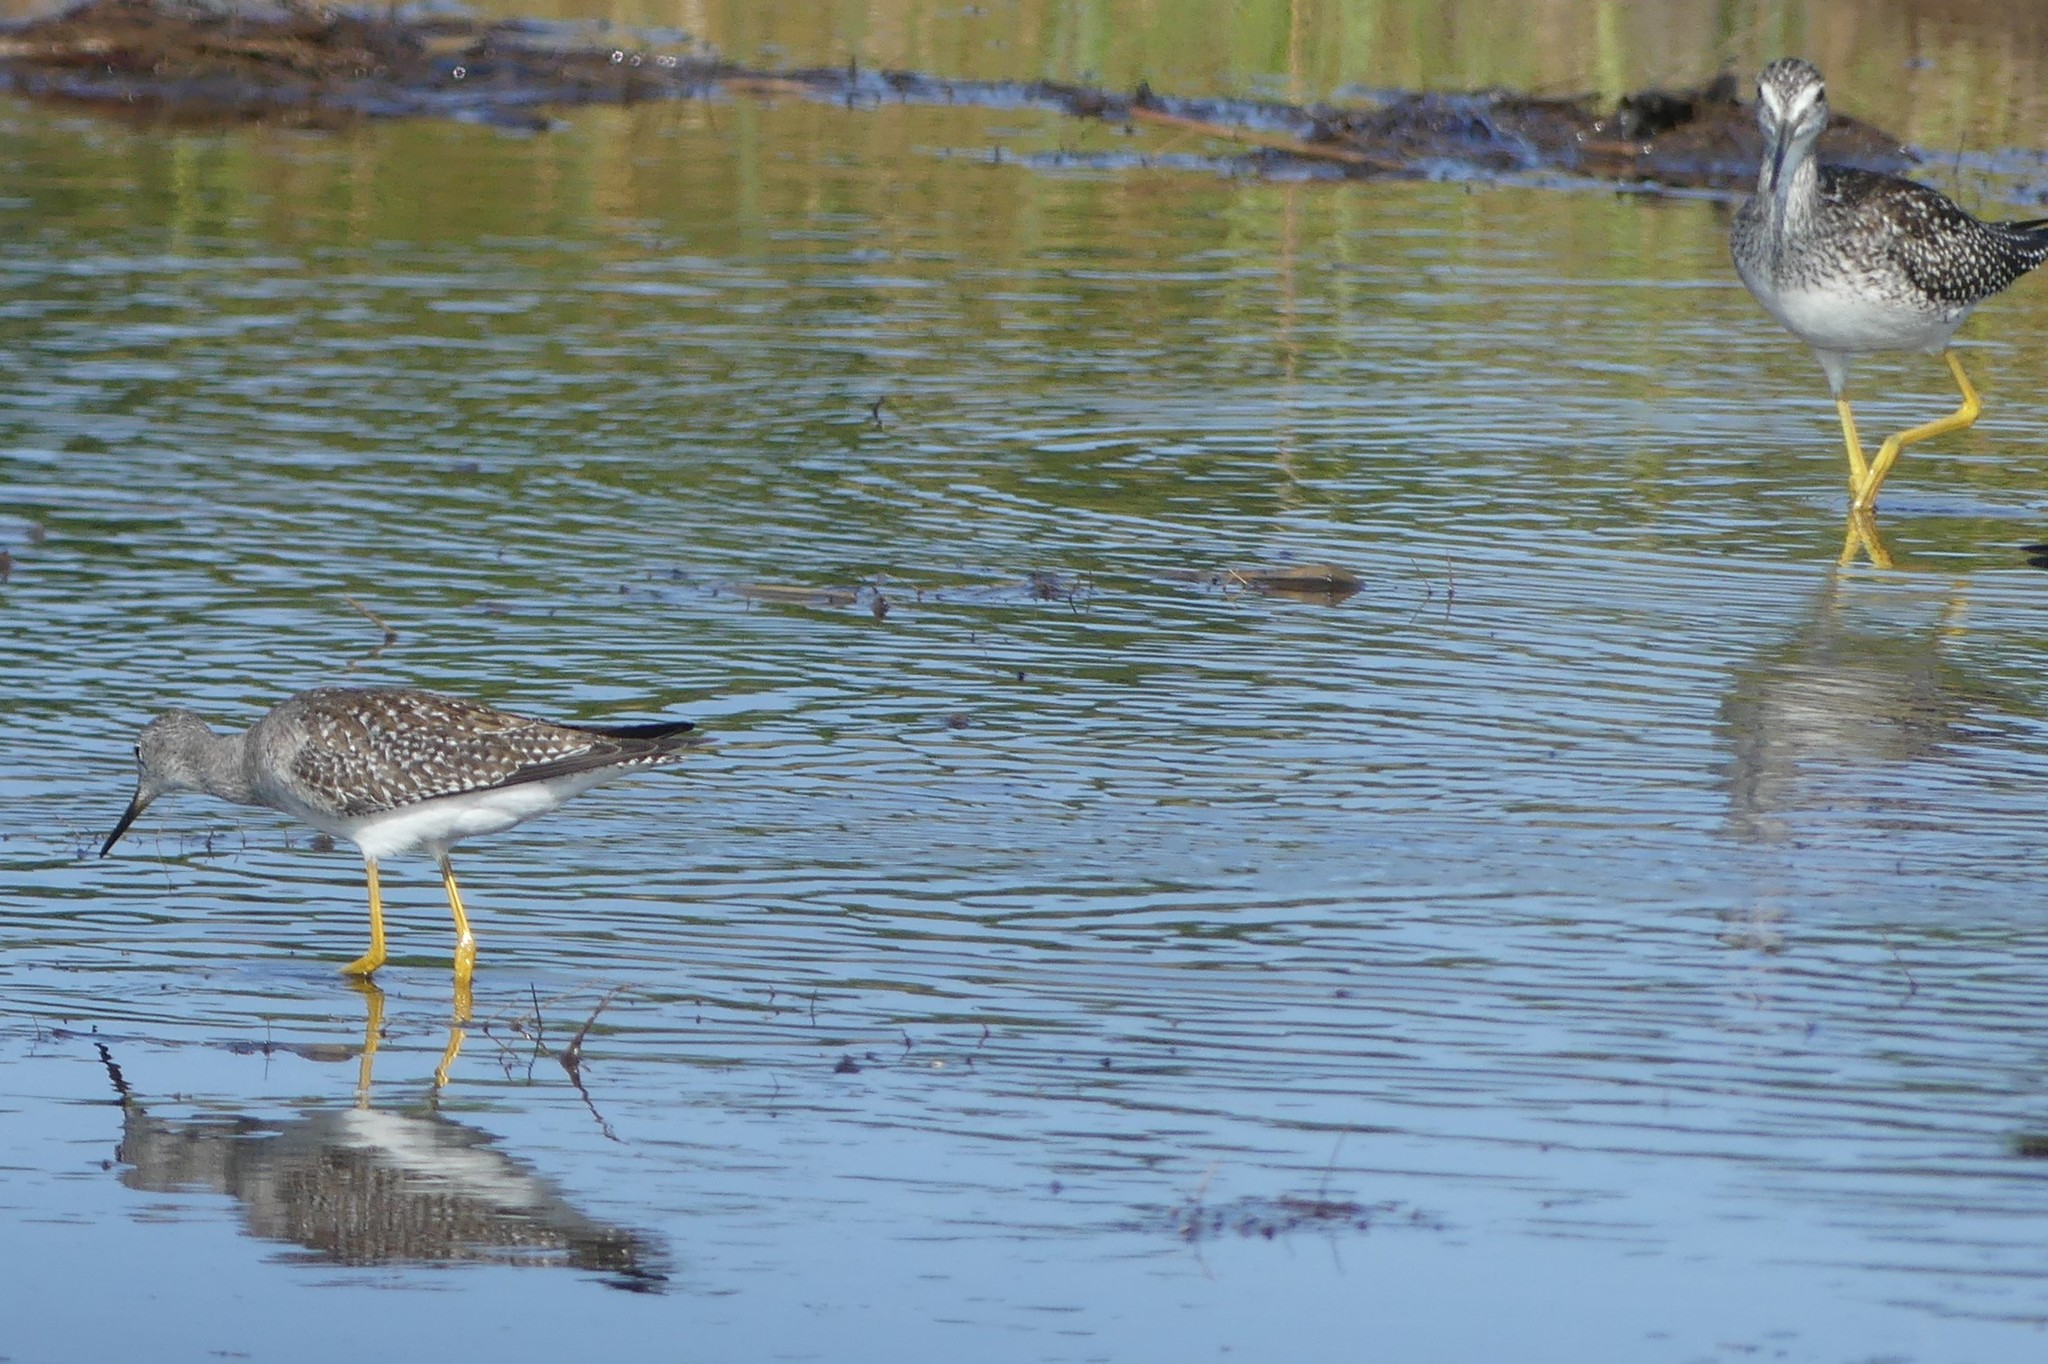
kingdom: Animalia
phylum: Chordata
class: Aves
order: Charadriiformes
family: Scolopacidae
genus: Tringa
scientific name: Tringa melanoleuca
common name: Greater yellowlegs
